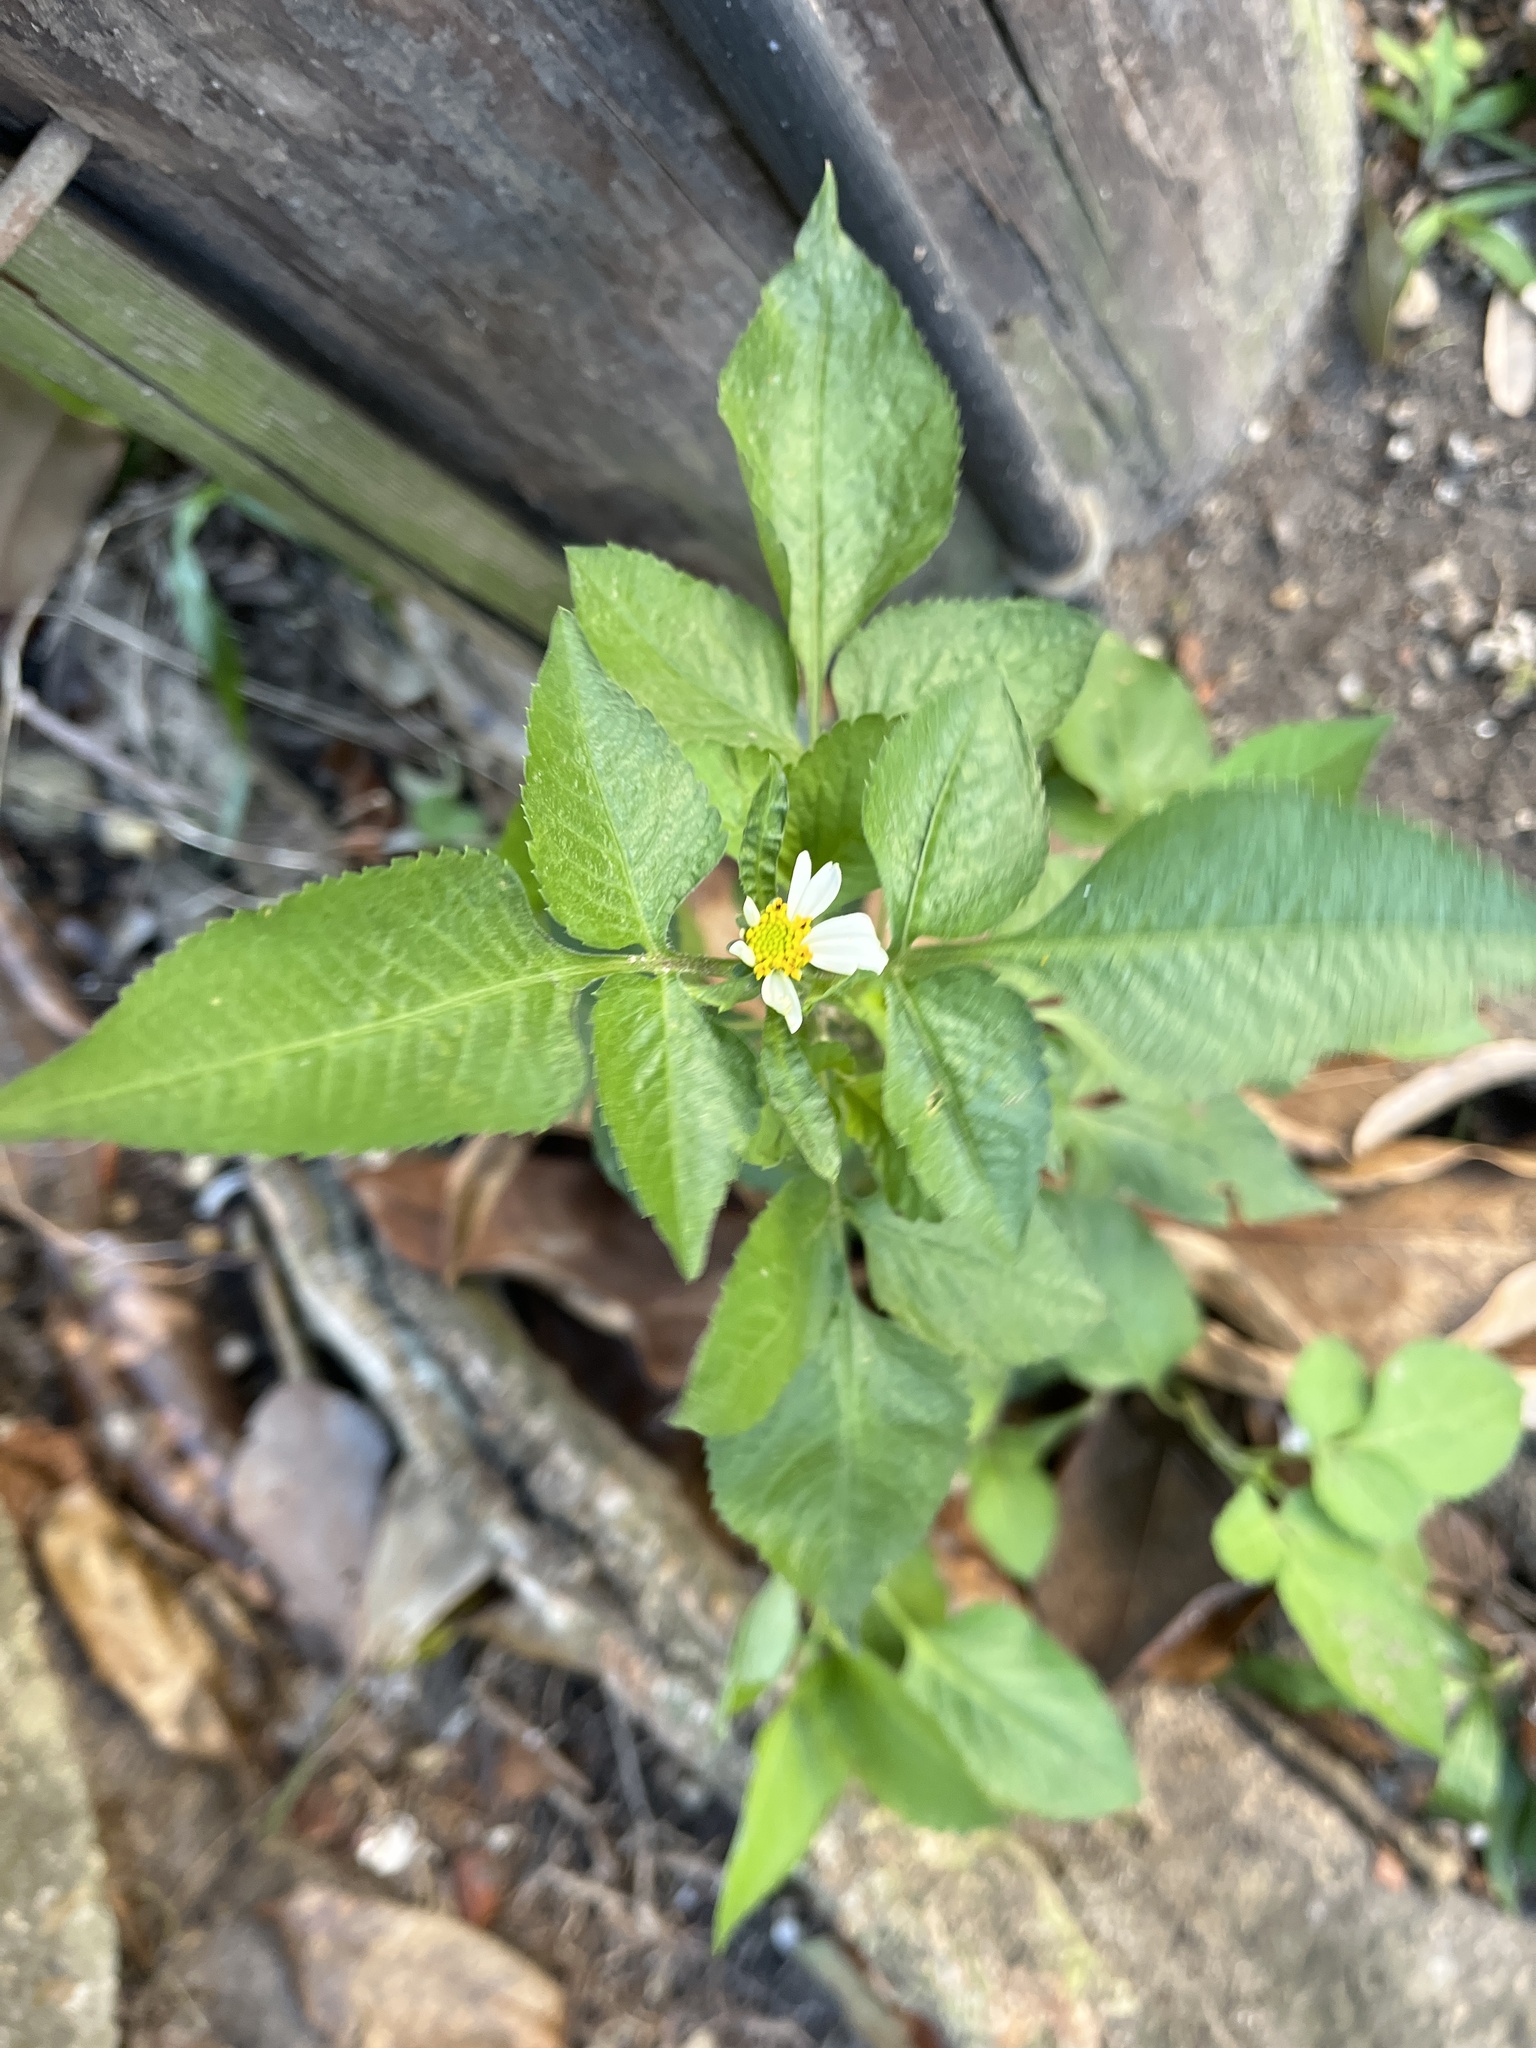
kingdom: Plantae
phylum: Tracheophyta
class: Magnoliopsida
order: Asterales
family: Asteraceae
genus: Bidens
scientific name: Bidens alba
